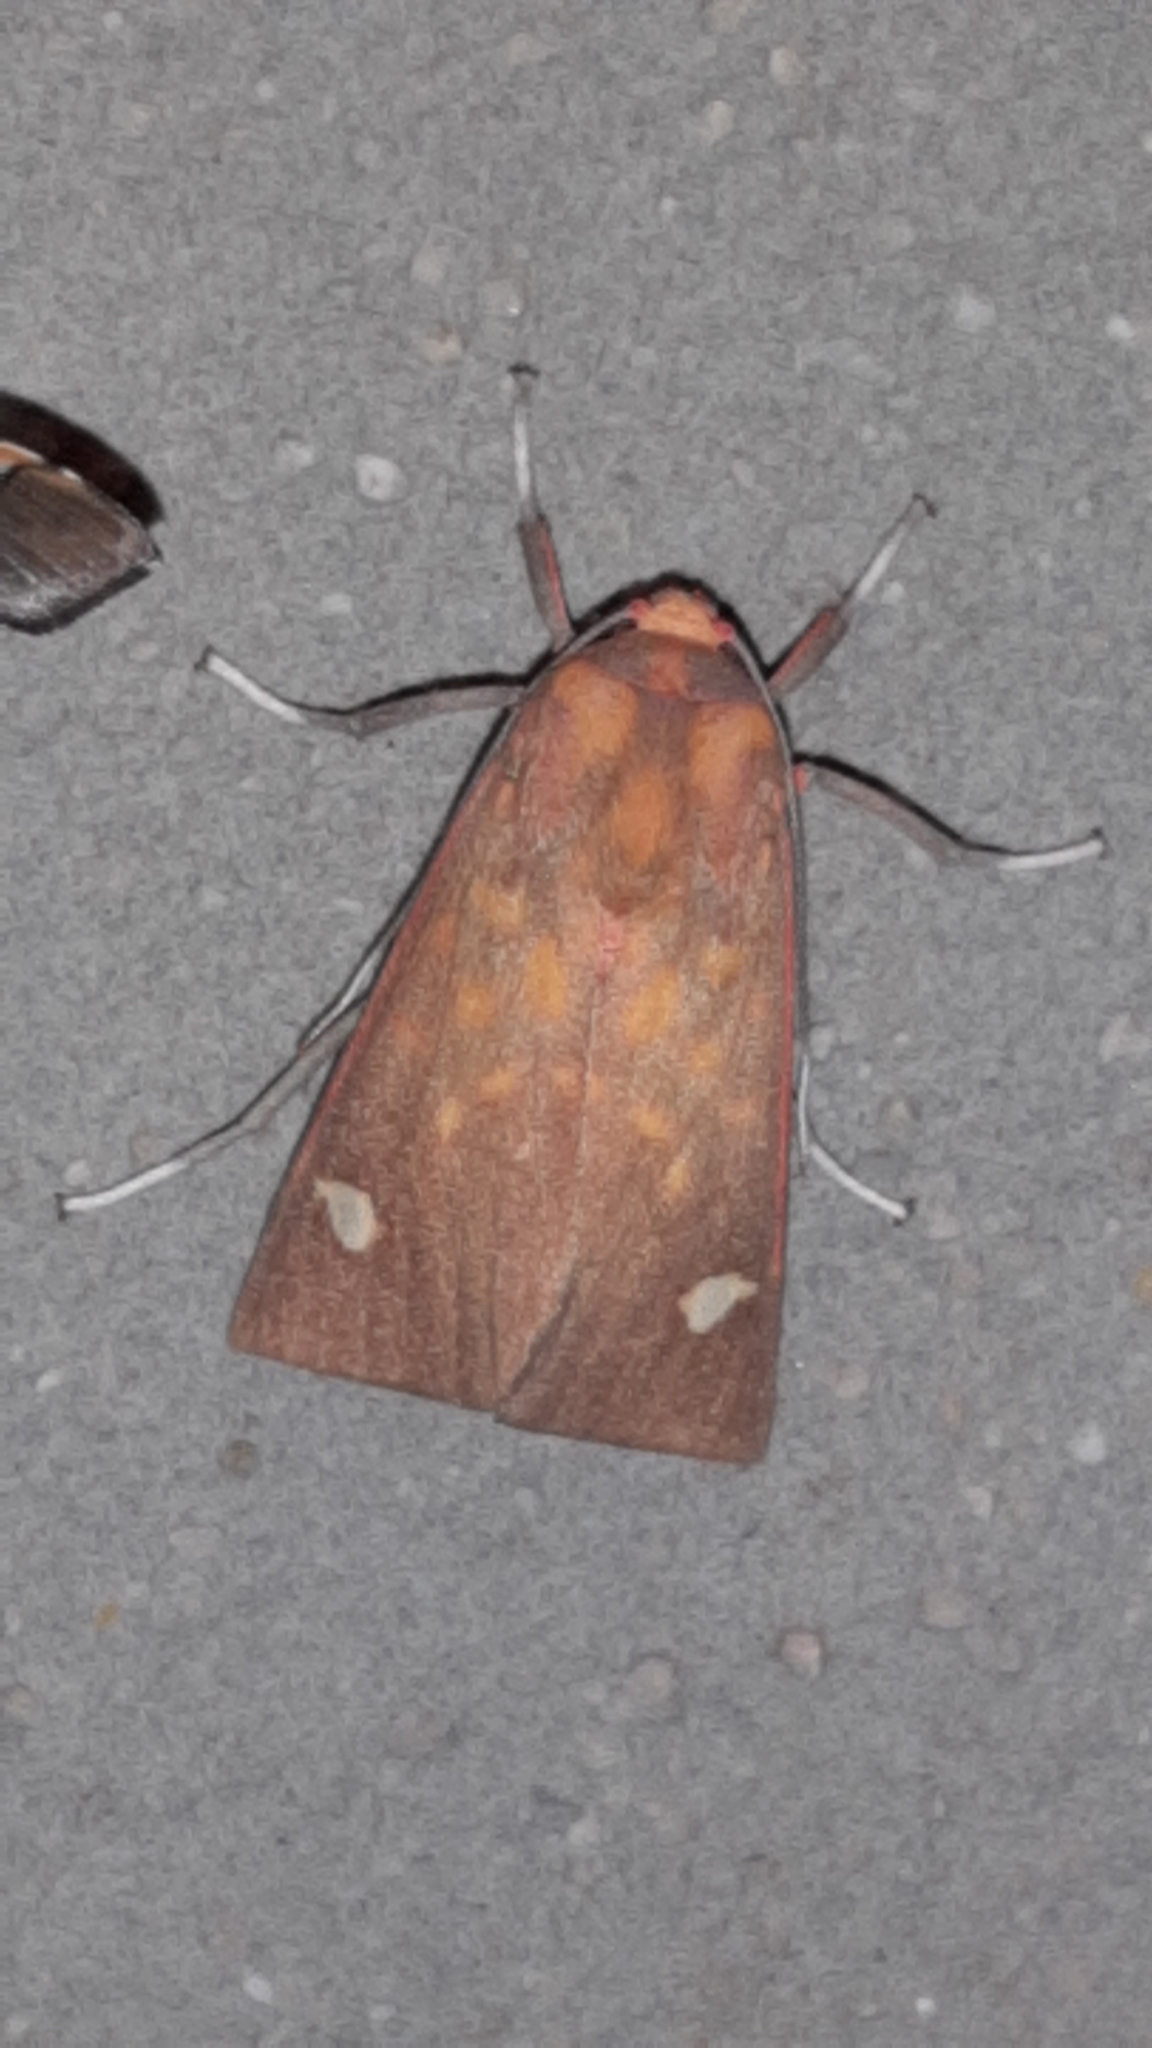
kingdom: Animalia
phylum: Arthropoda
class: Insecta
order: Lepidoptera
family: Erebidae
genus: Melese
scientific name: Melese intensa
